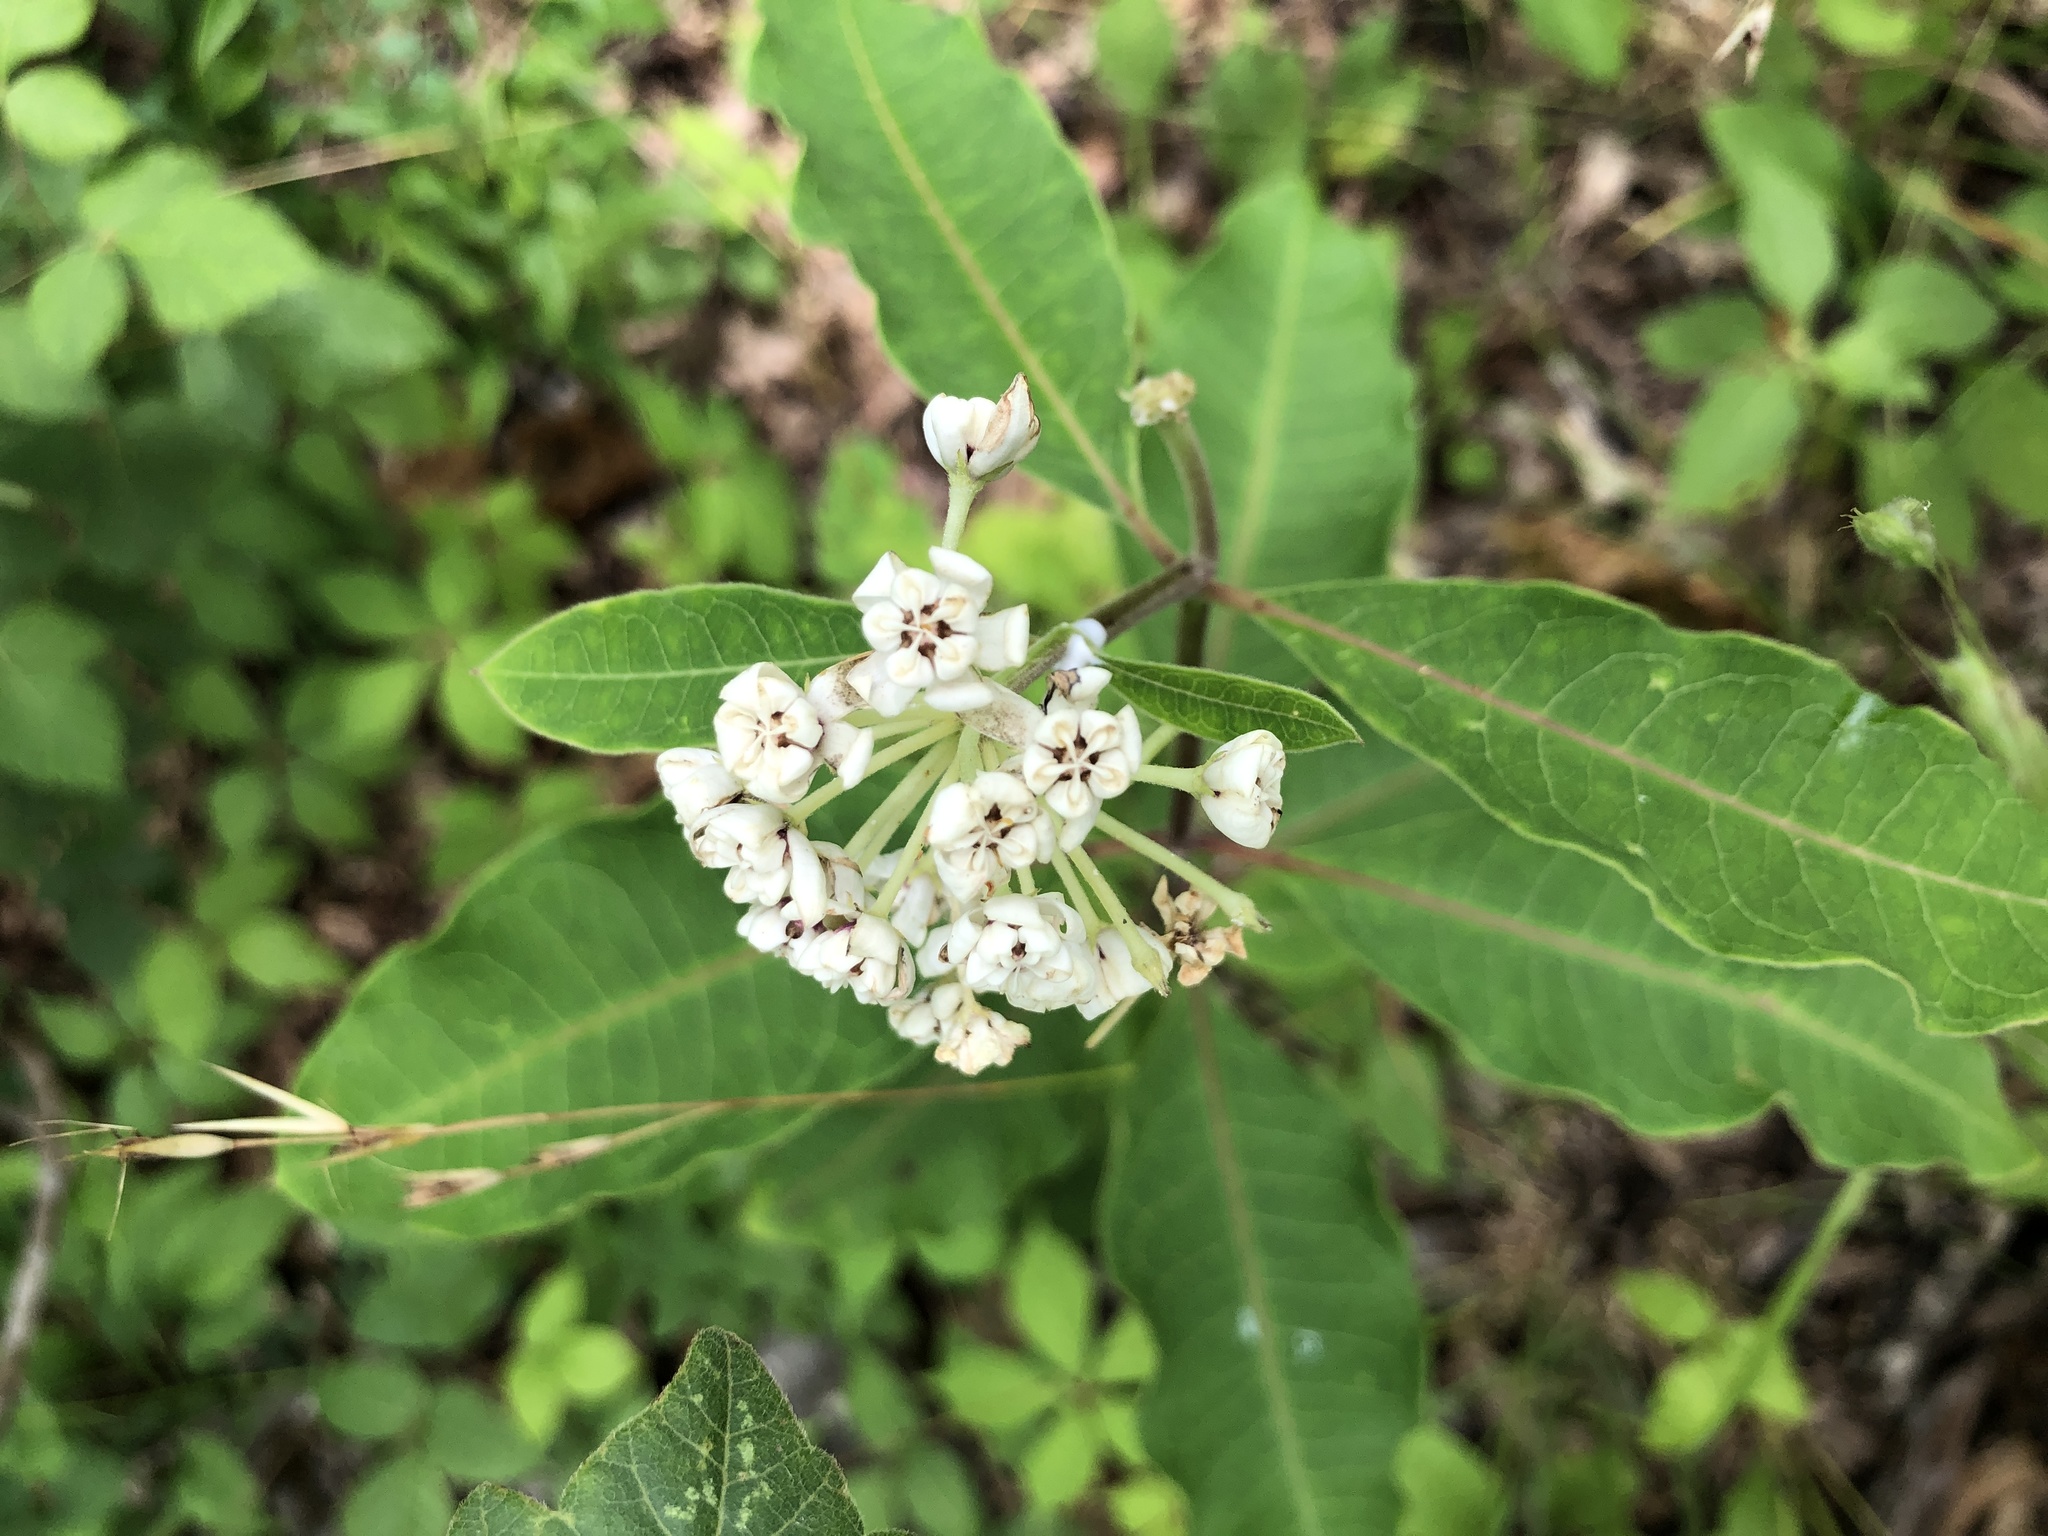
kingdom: Plantae
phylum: Tracheophyta
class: Magnoliopsida
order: Gentianales
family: Apocynaceae
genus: Asclepias
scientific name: Asclepias variegata
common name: Variegated milkweed
